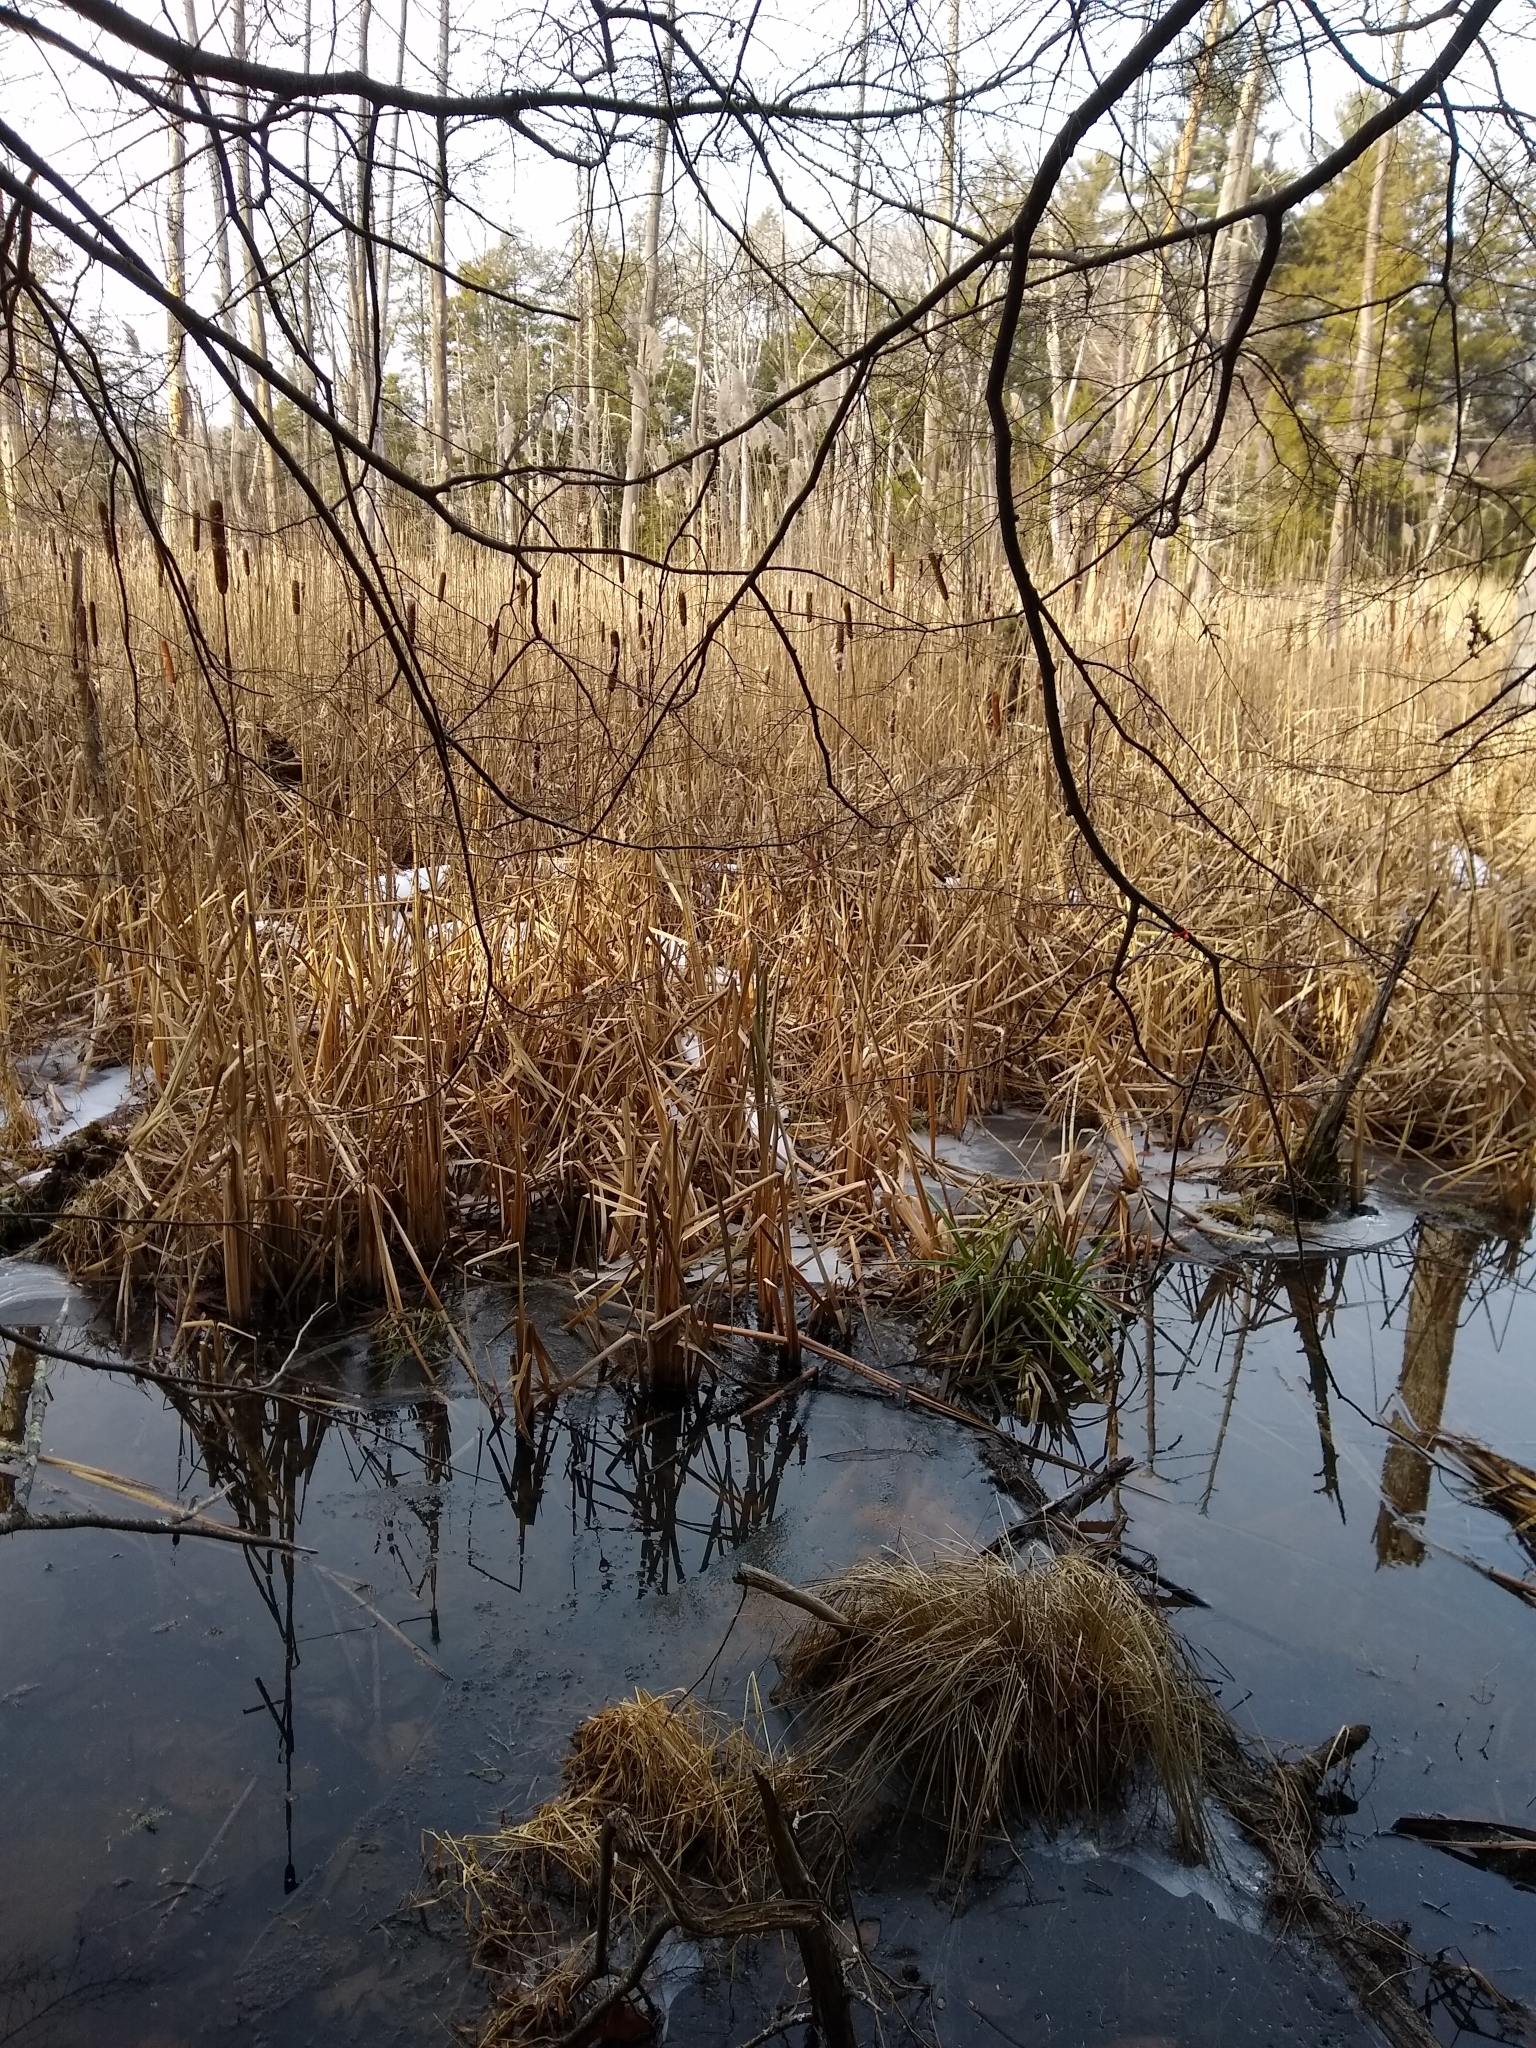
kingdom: Plantae
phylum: Tracheophyta
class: Liliopsida
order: Poales
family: Typhaceae
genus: Typha
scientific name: Typha latifolia
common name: Broadleaf cattail
